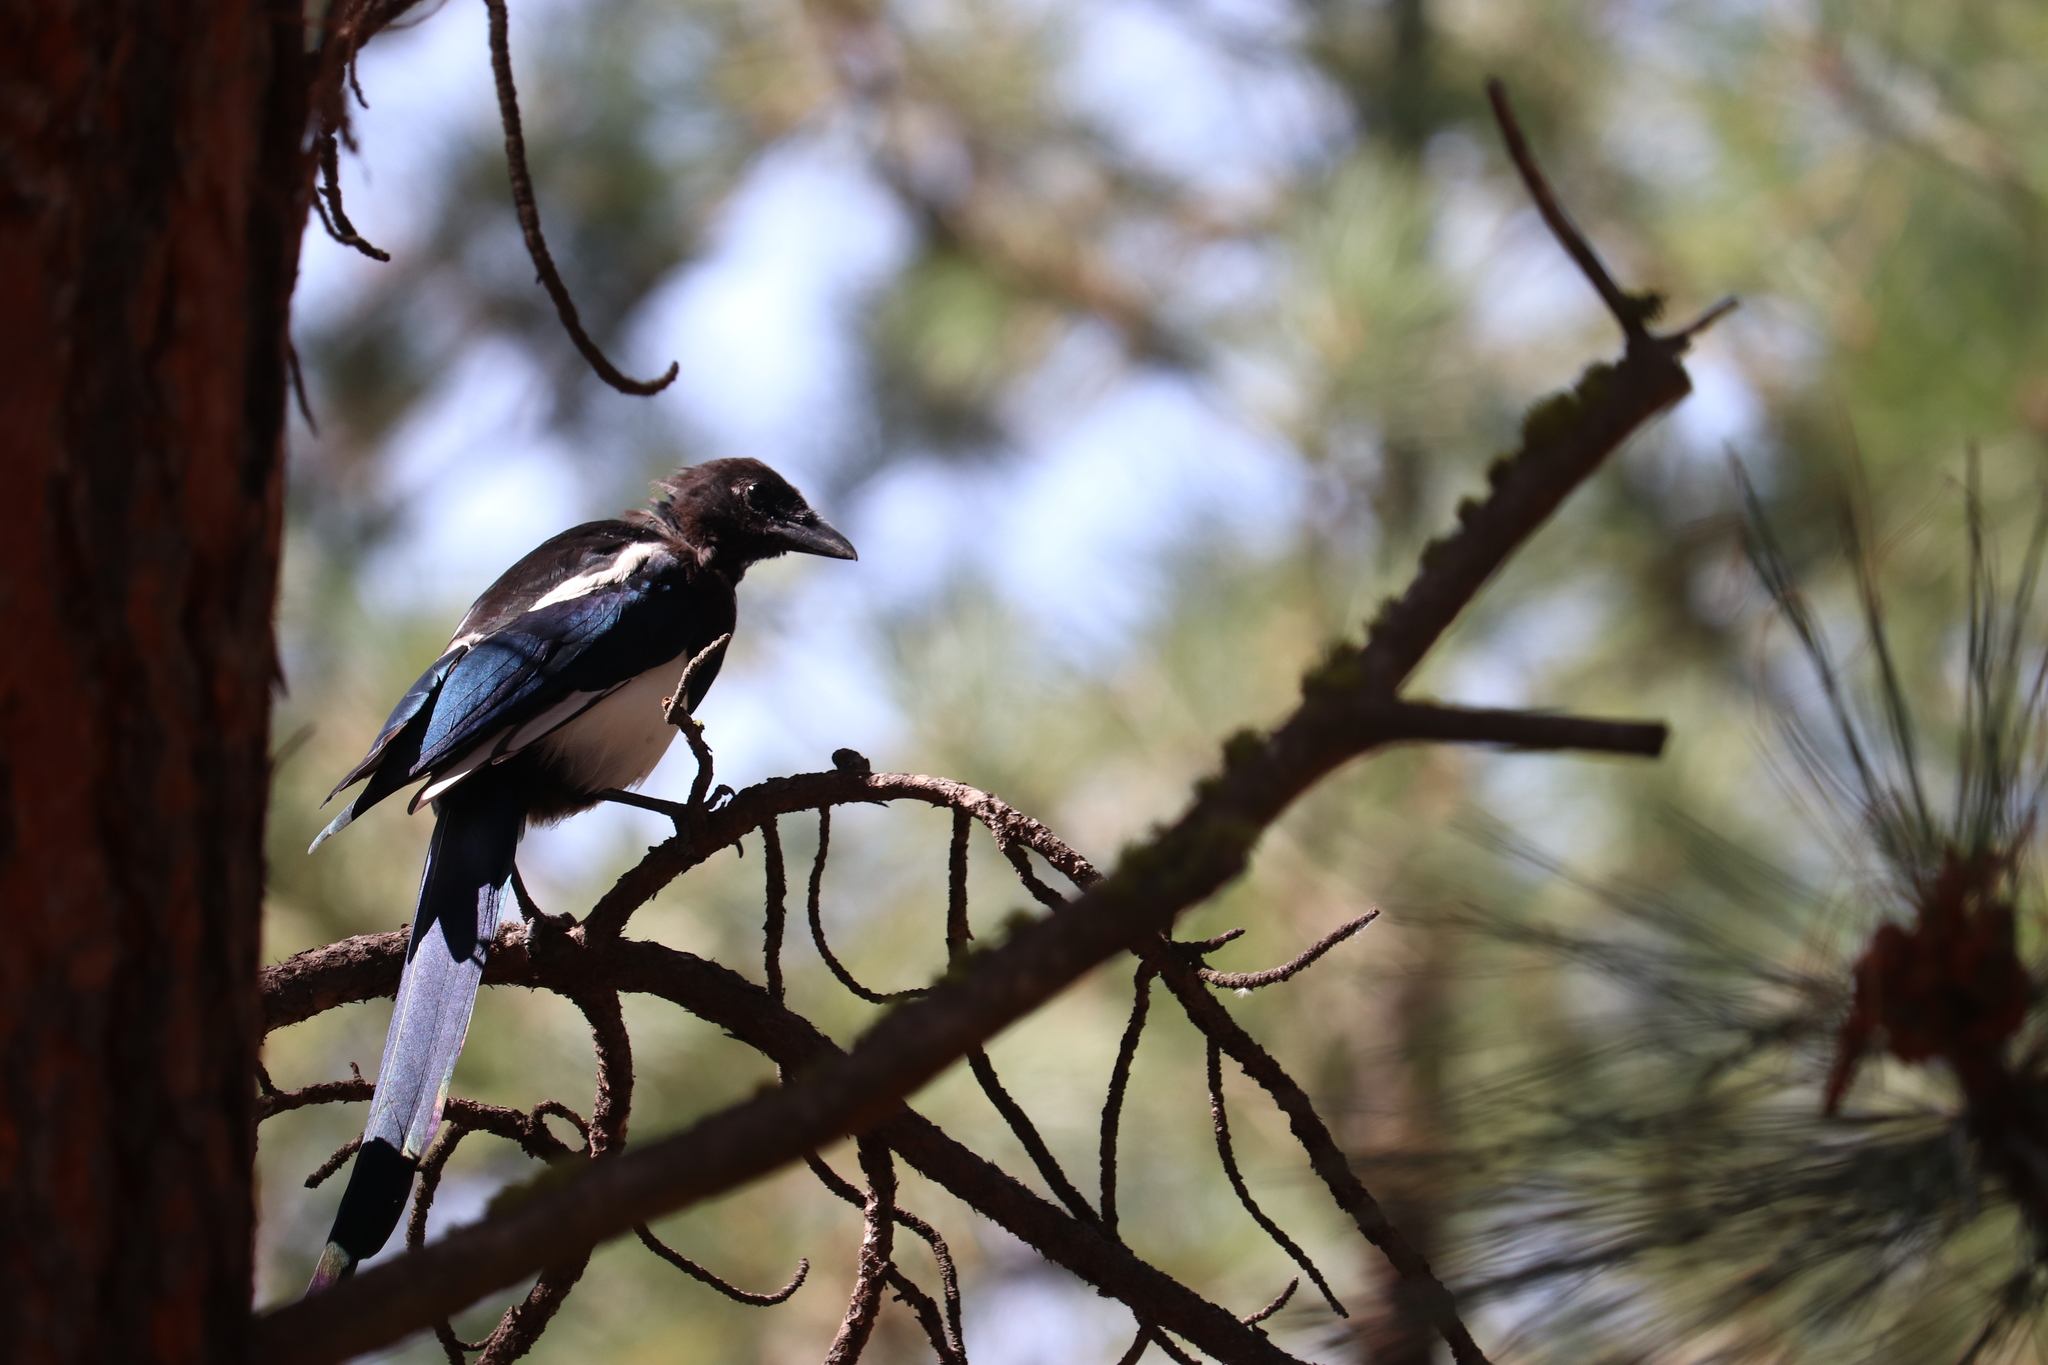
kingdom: Animalia
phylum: Chordata
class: Aves
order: Passeriformes
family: Corvidae
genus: Pica
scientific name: Pica hudsonia
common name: Black-billed magpie
